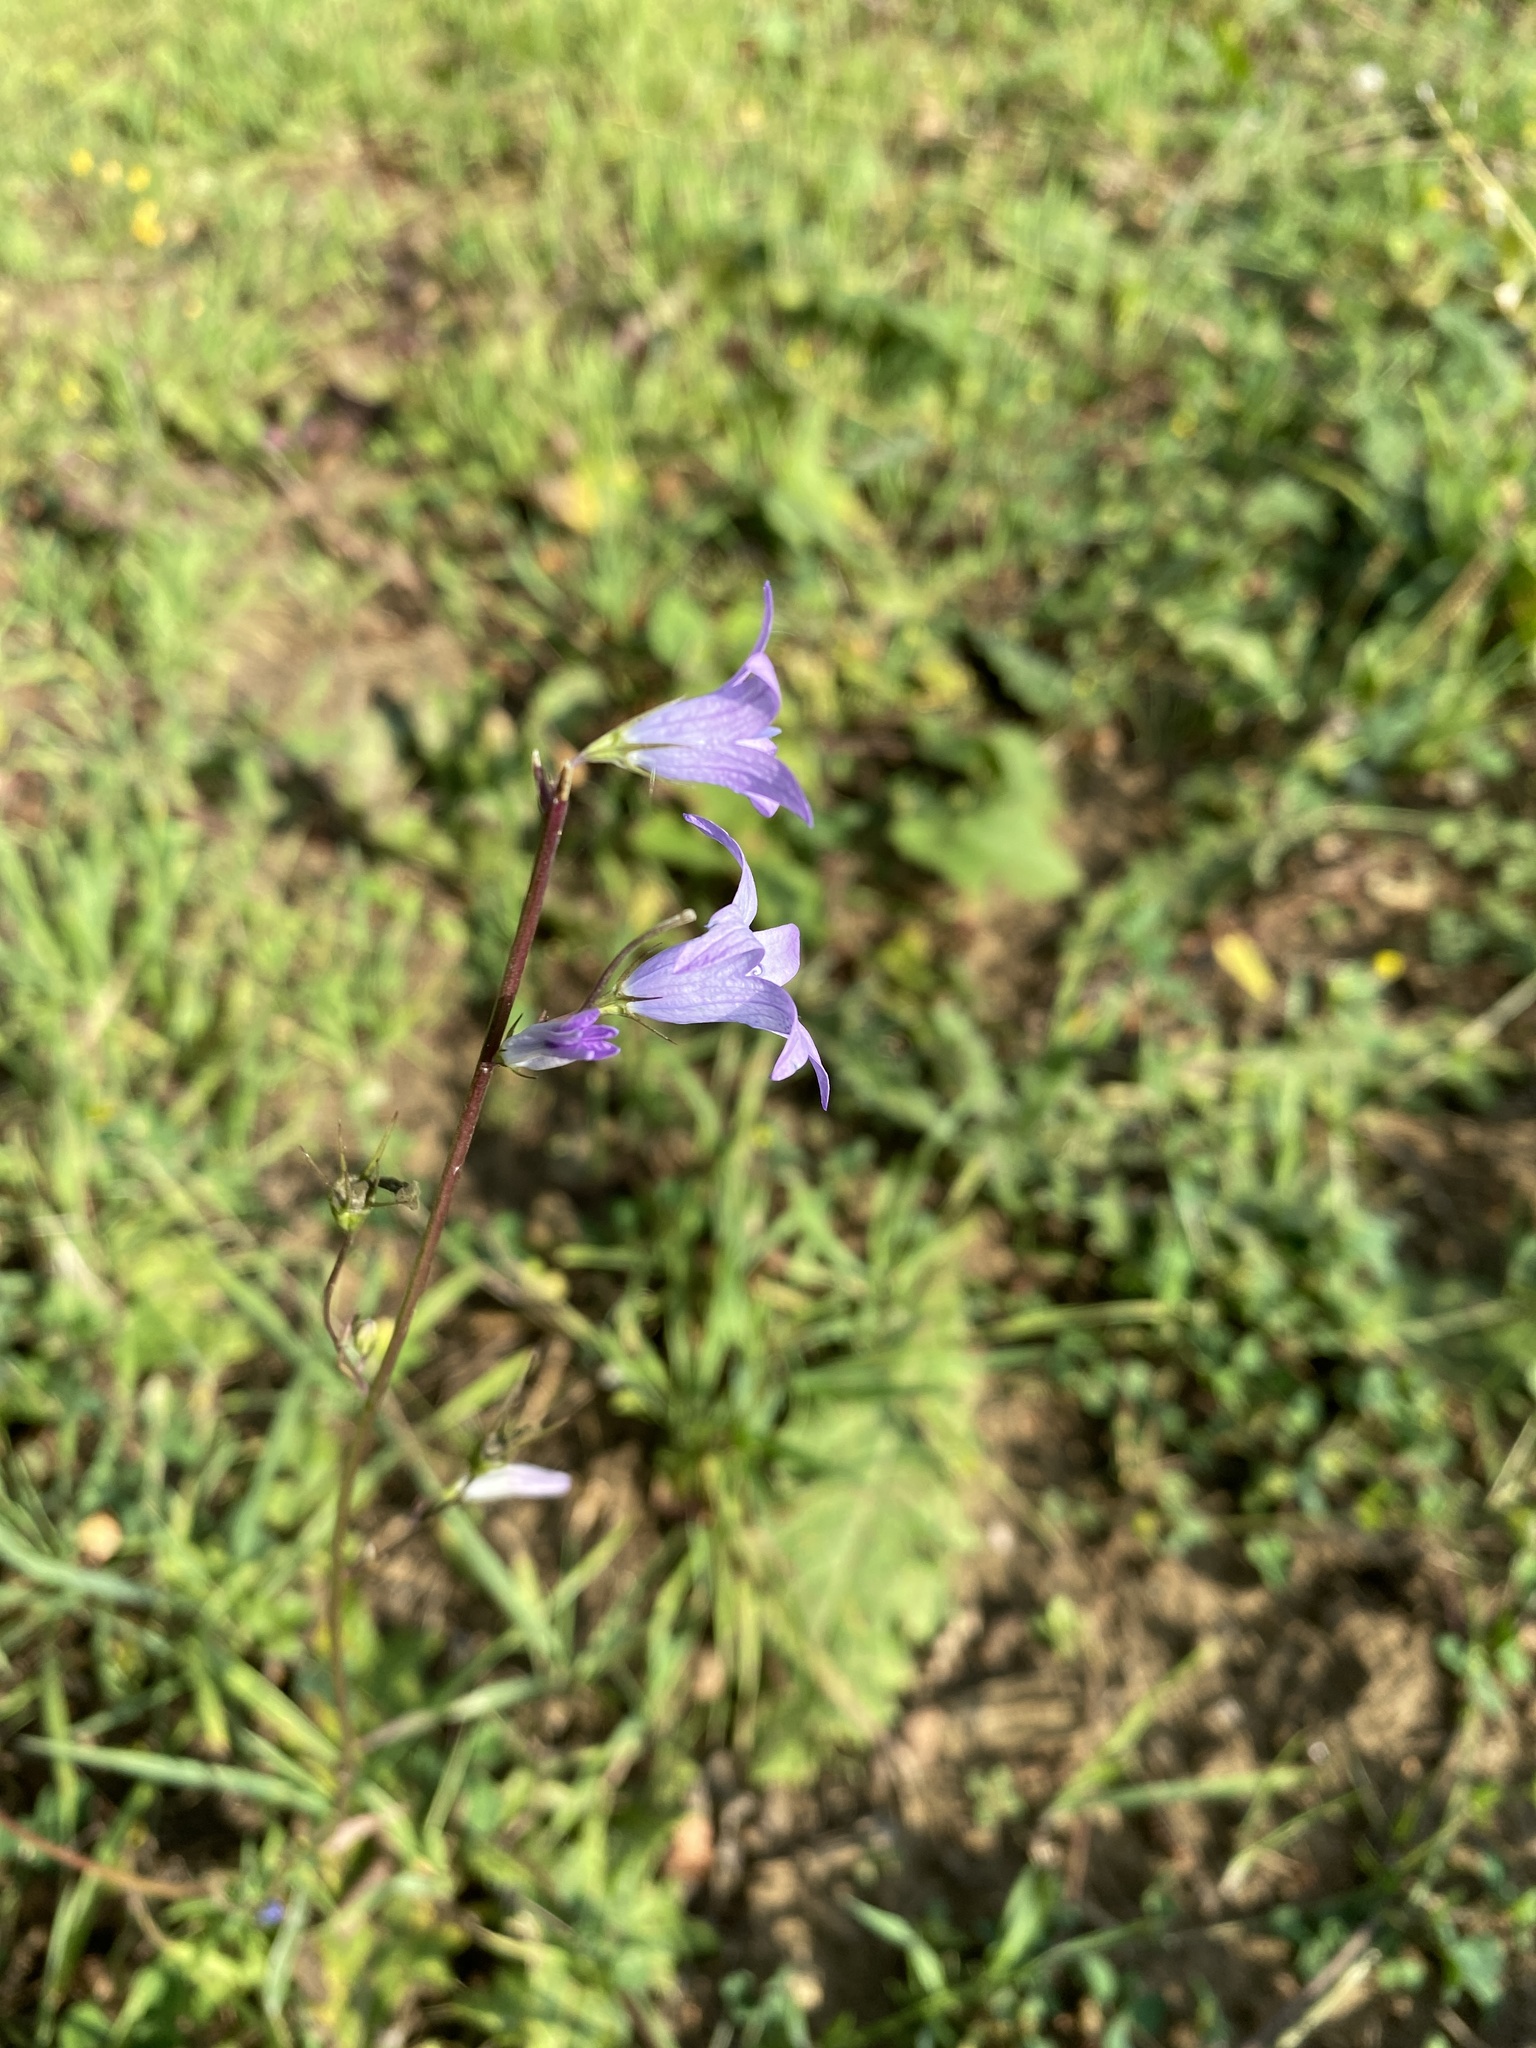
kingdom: Plantae
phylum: Tracheophyta
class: Magnoliopsida
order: Asterales
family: Campanulaceae
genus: Campanula
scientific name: Campanula rapunculus
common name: Rampion bellflower
